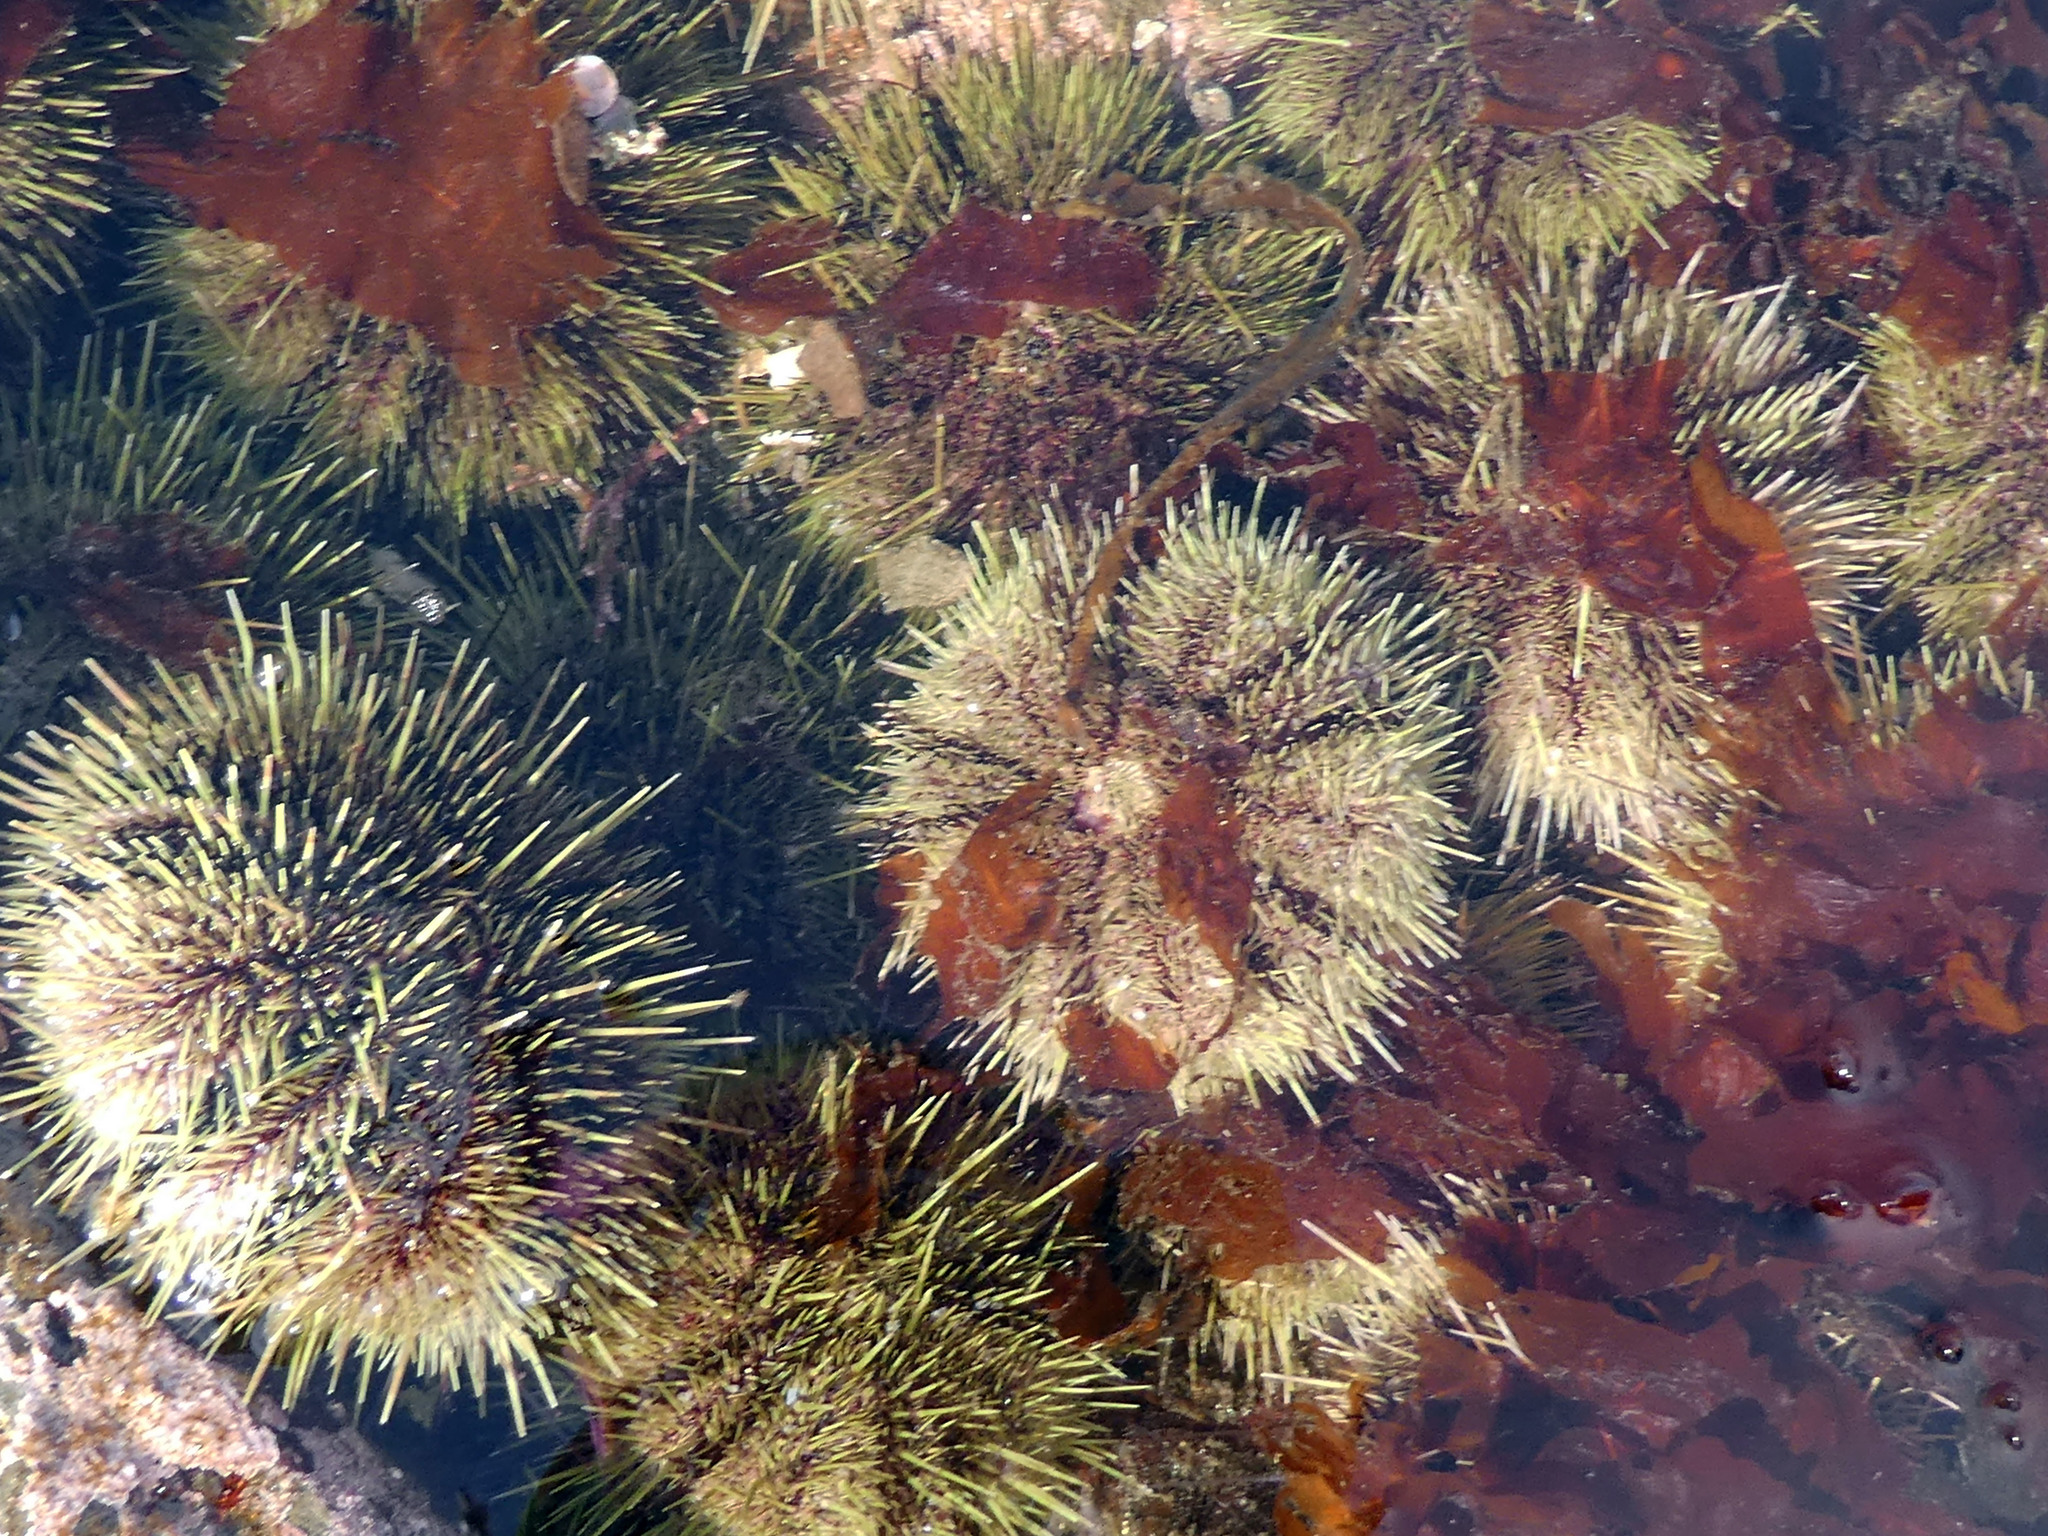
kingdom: Animalia
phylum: Echinodermata
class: Echinoidea
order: Camarodonta
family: Strongylocentrotidae
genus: Strongylocentrotus
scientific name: Strongylocentrotus droebachiensis
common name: Northern sea urchin
